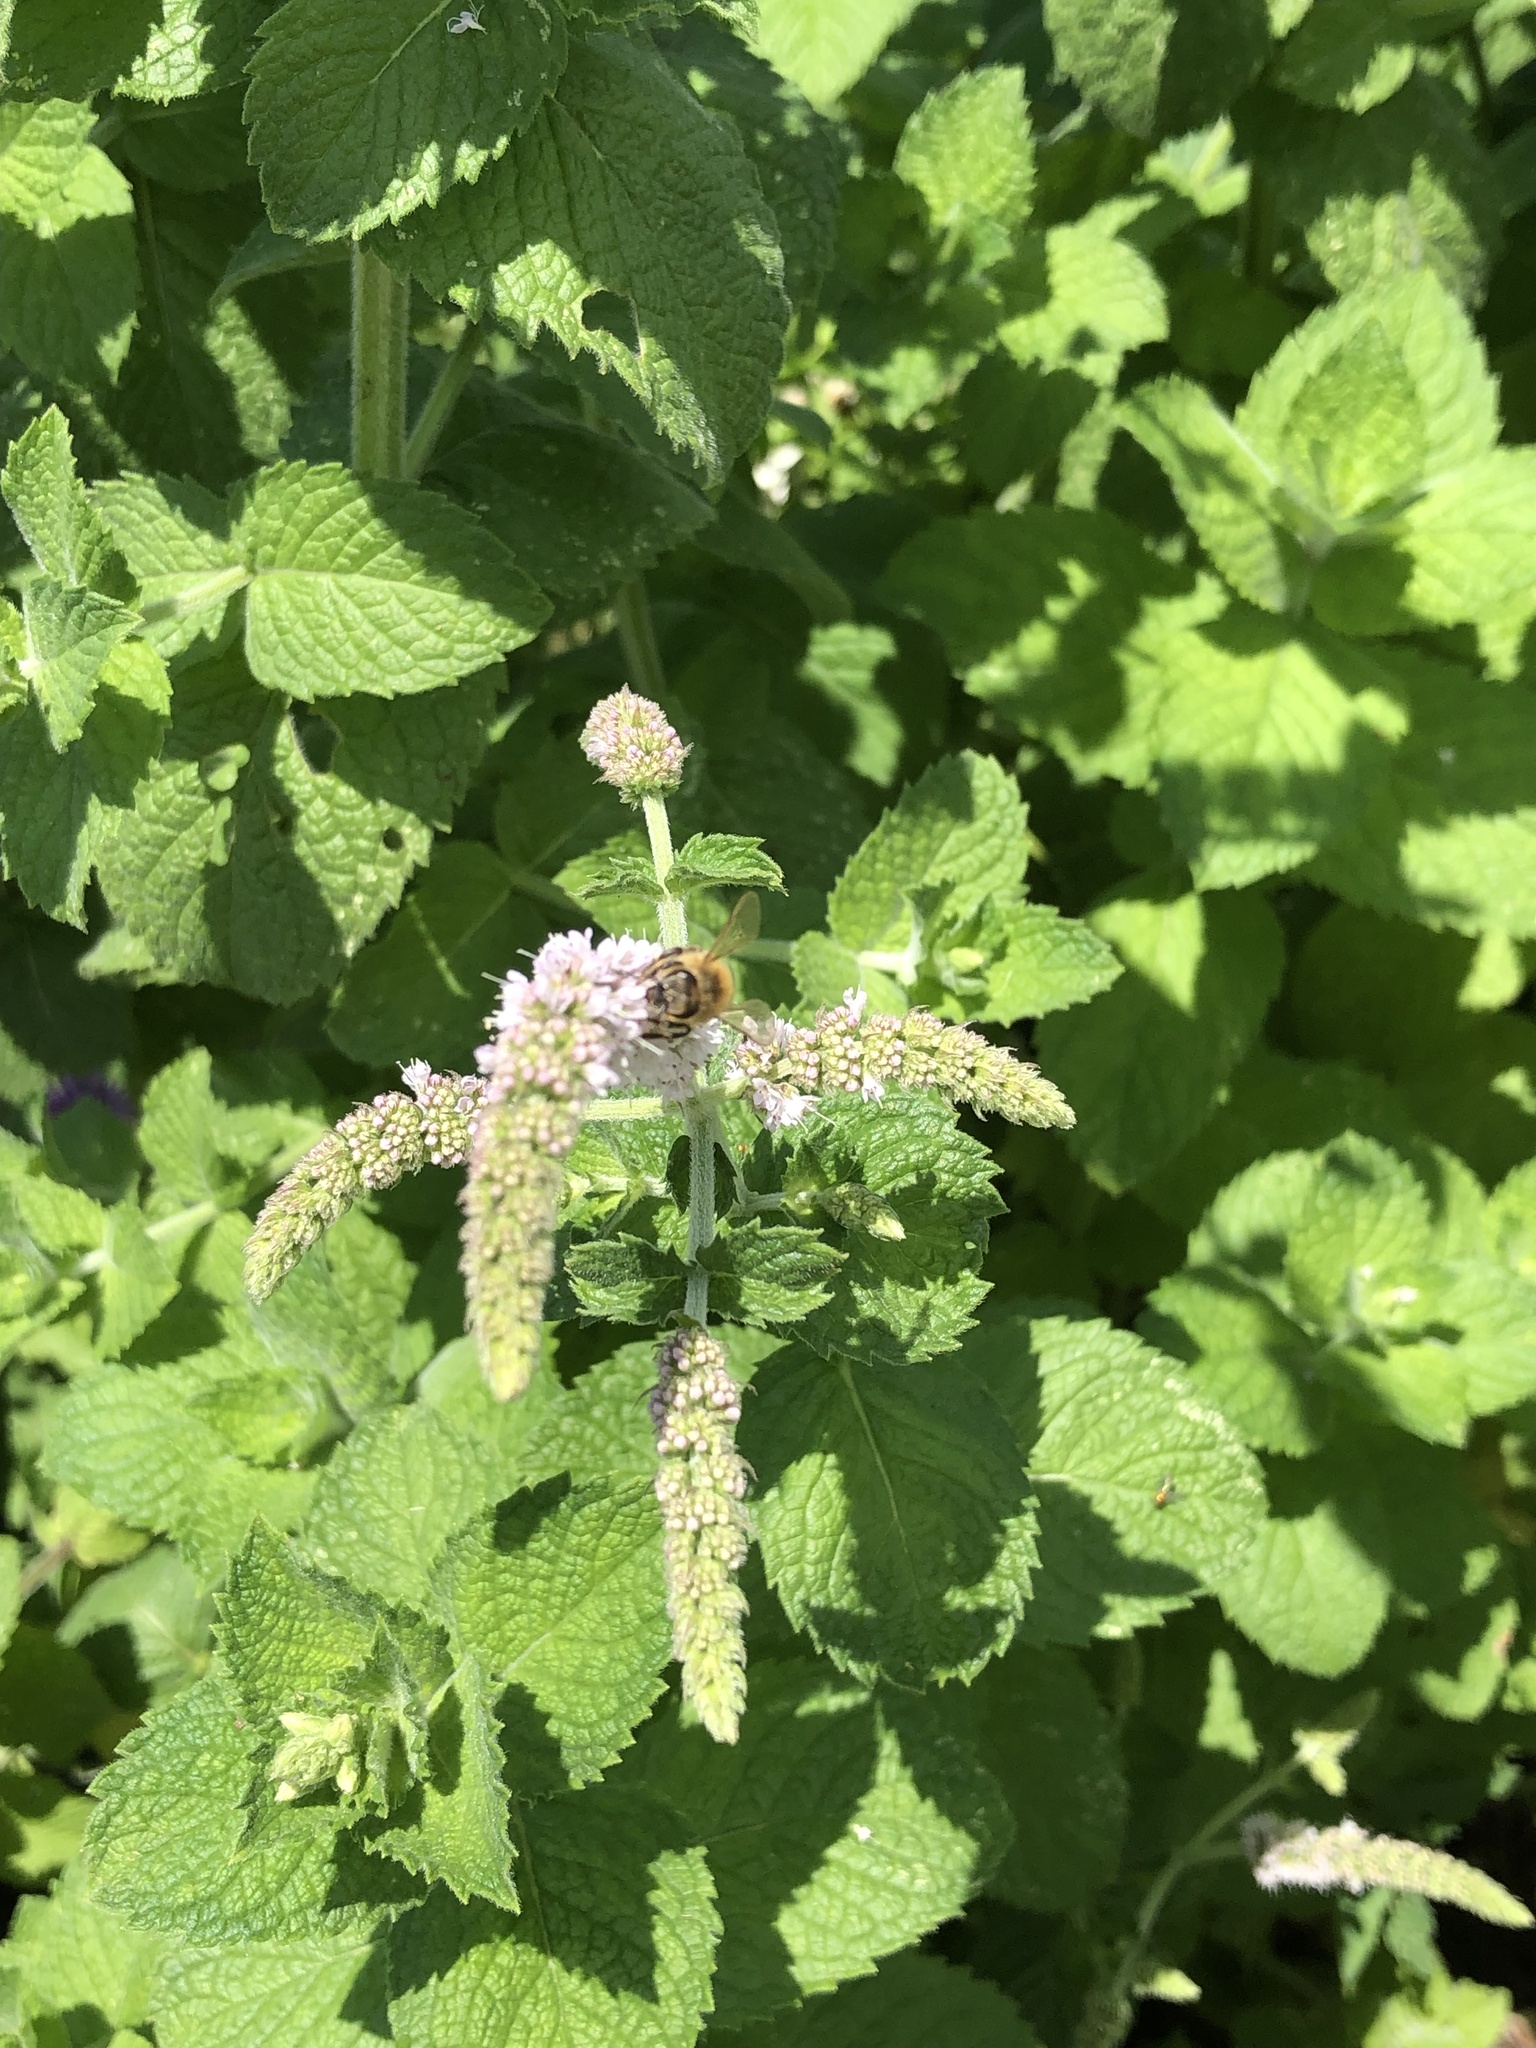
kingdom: Animalia
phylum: Arthropoda
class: Insecta
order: Hymenoptera
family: Apidae
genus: Apis
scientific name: Apis mellifera
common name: Honey bee
